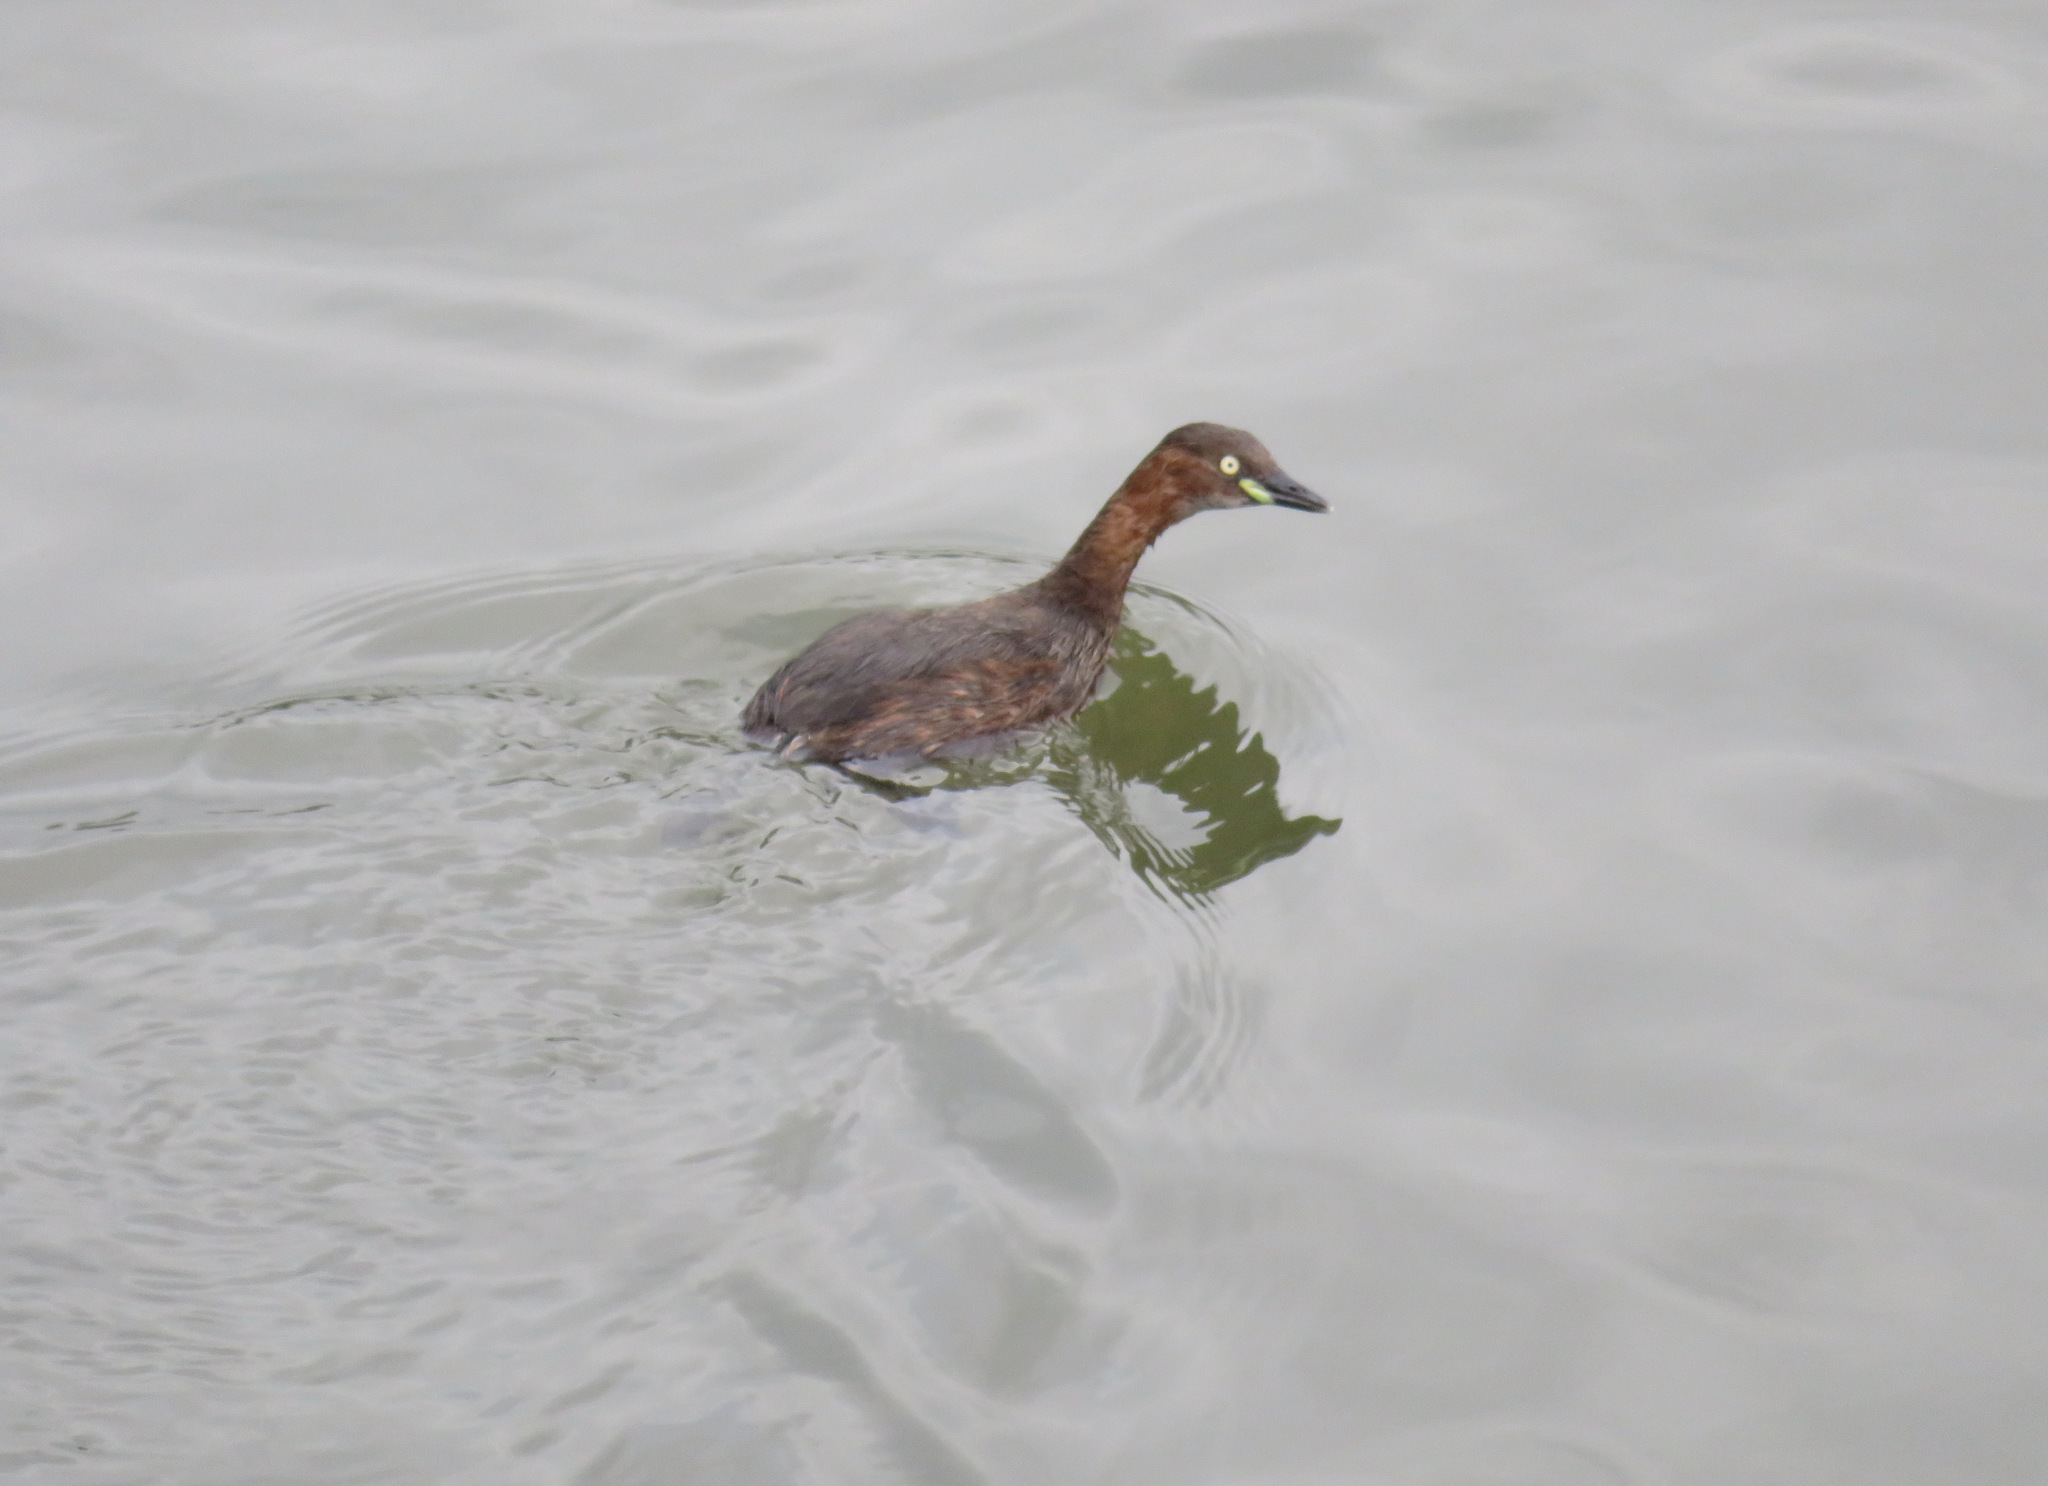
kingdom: Animalia
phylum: Chordata
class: Aves
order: Podicipediformes
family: Podicipedidae
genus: Tachybaptus
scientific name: Tachybaptus ruficollis
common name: Little grebe
